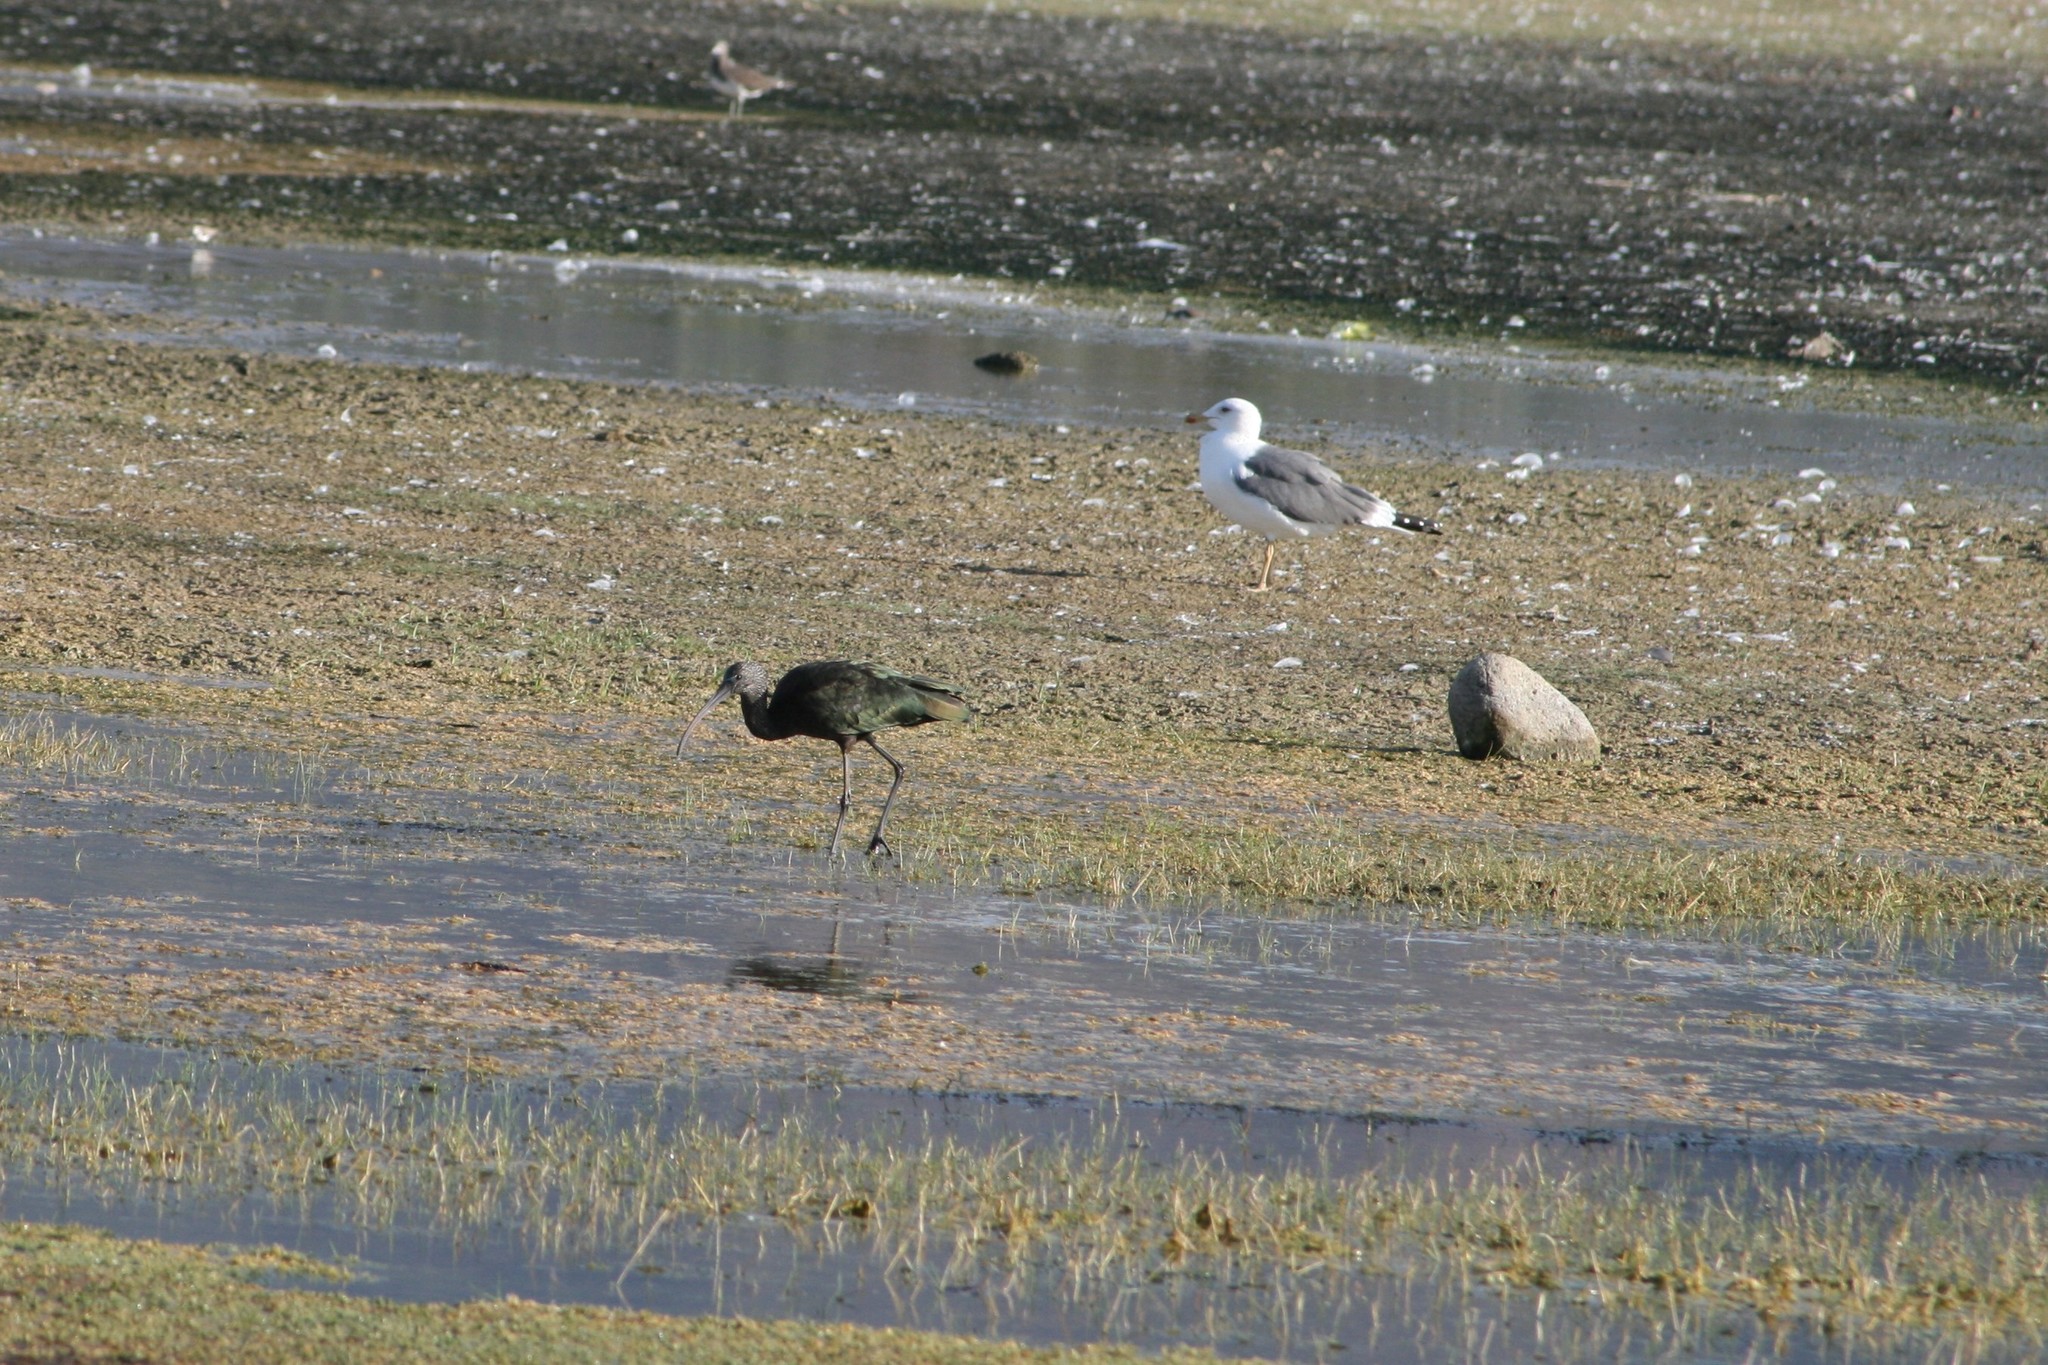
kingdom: Animalia
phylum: Chordata
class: Aves
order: Pelecaniformes
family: Threskiornithidae
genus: Plegadis
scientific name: Plegadis falcinellus
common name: Glossy ibis
